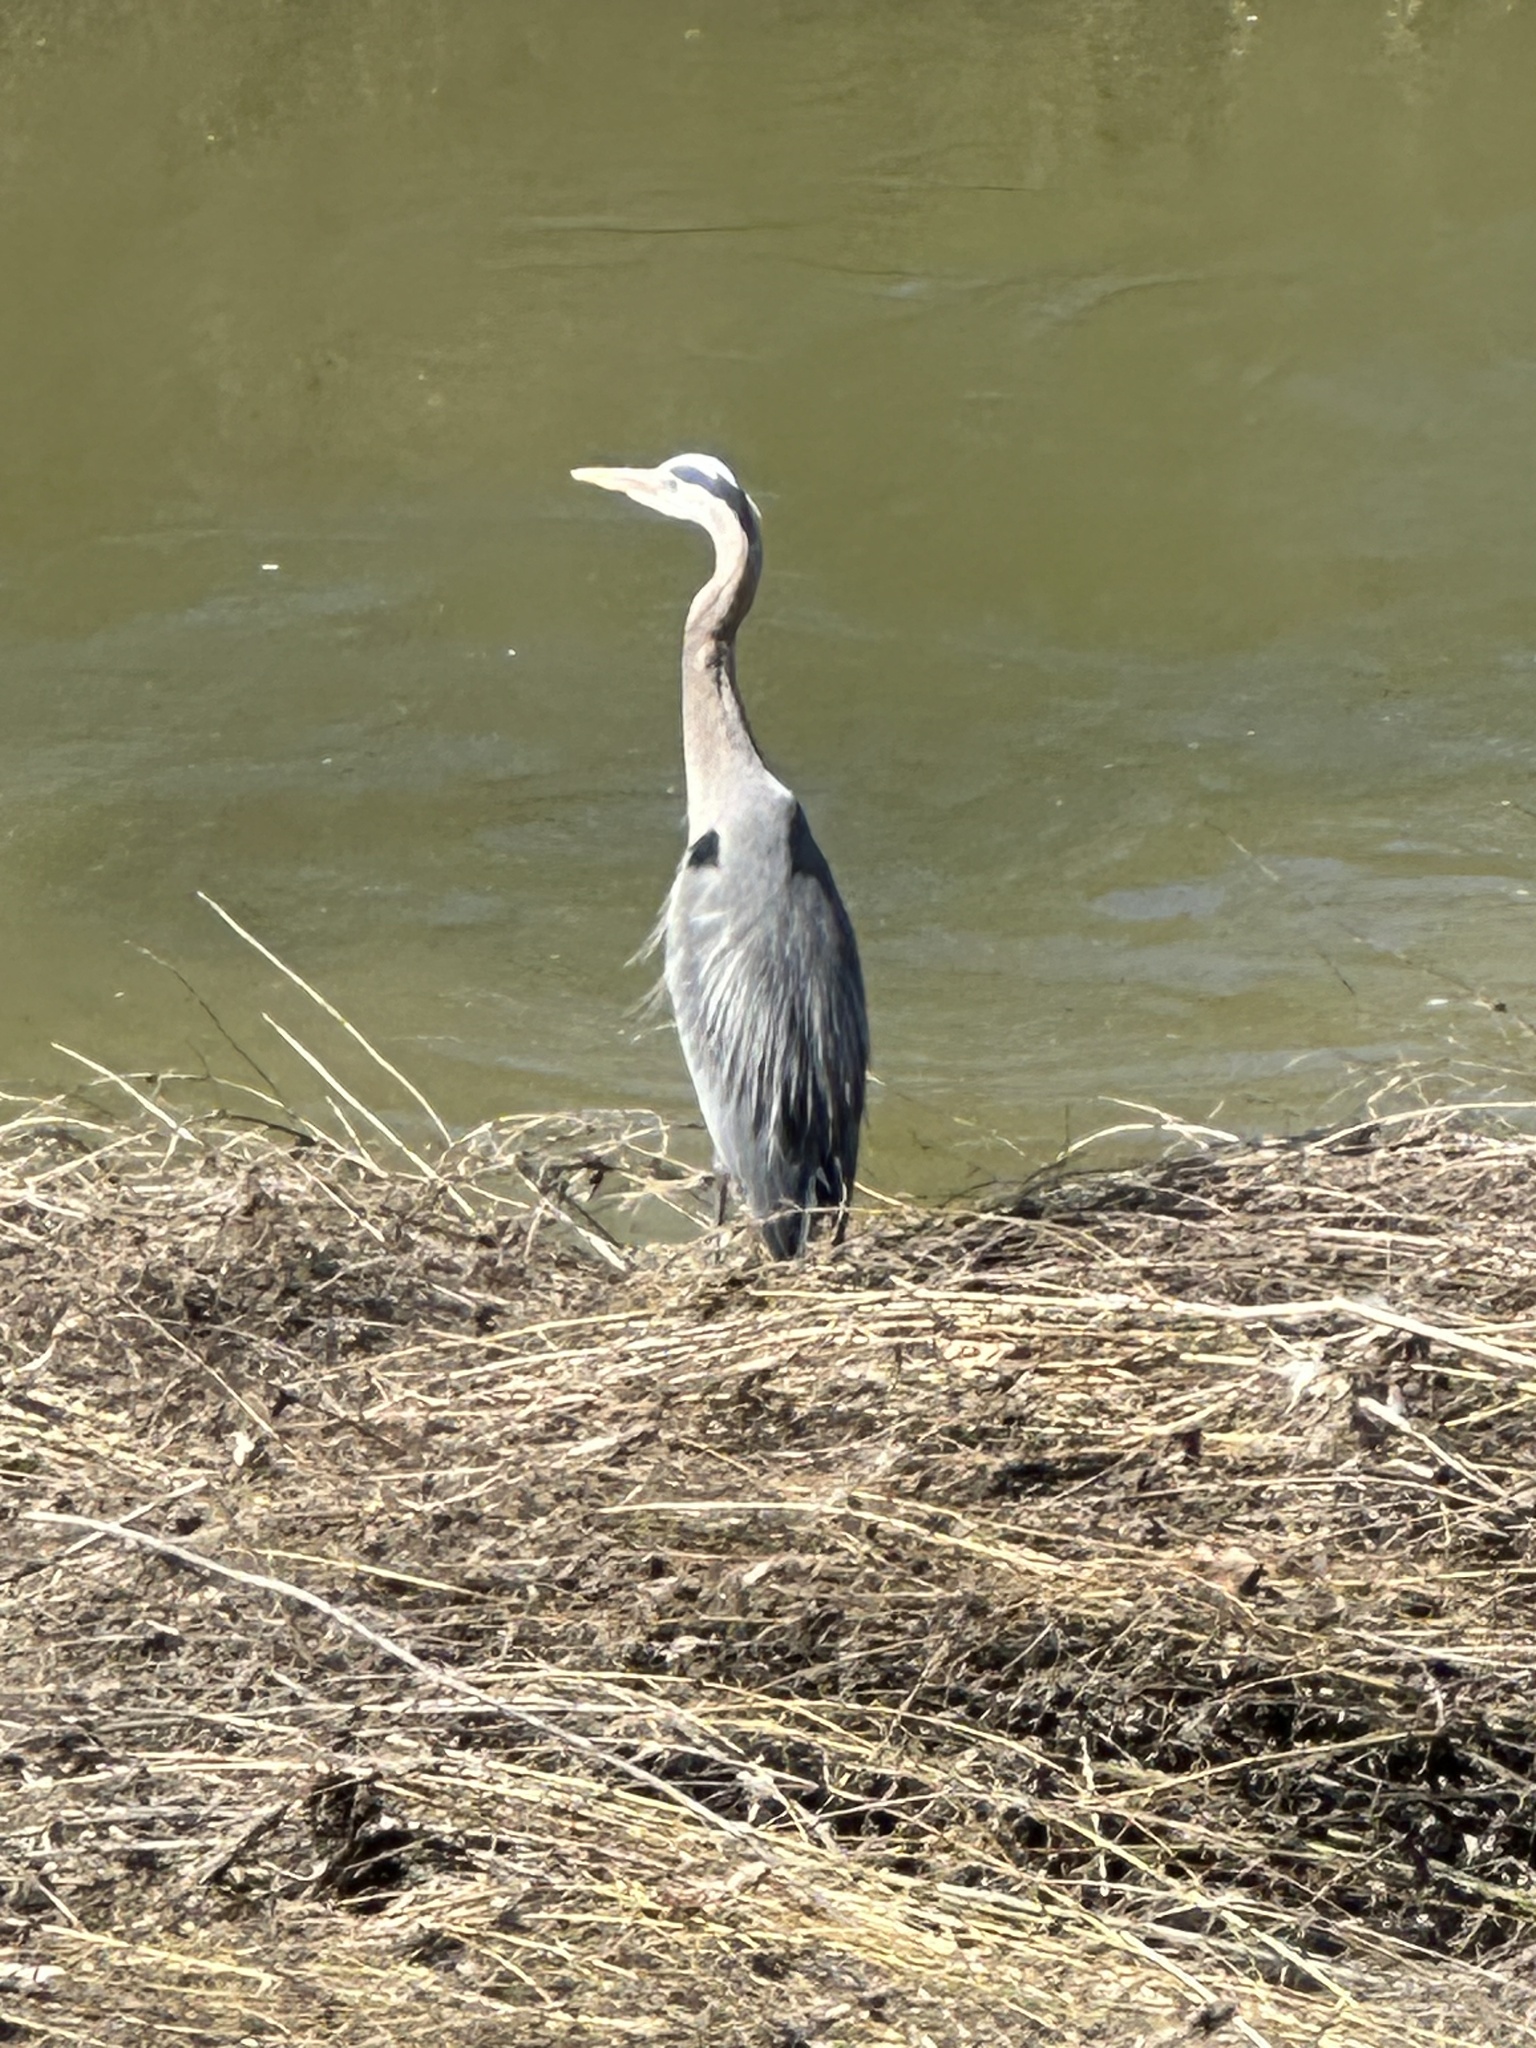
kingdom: Animalia
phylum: Chordata
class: Aves
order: Pelecaniformes
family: Ardeidae
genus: Ardea
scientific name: Ardea herodias
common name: Great blue heron
